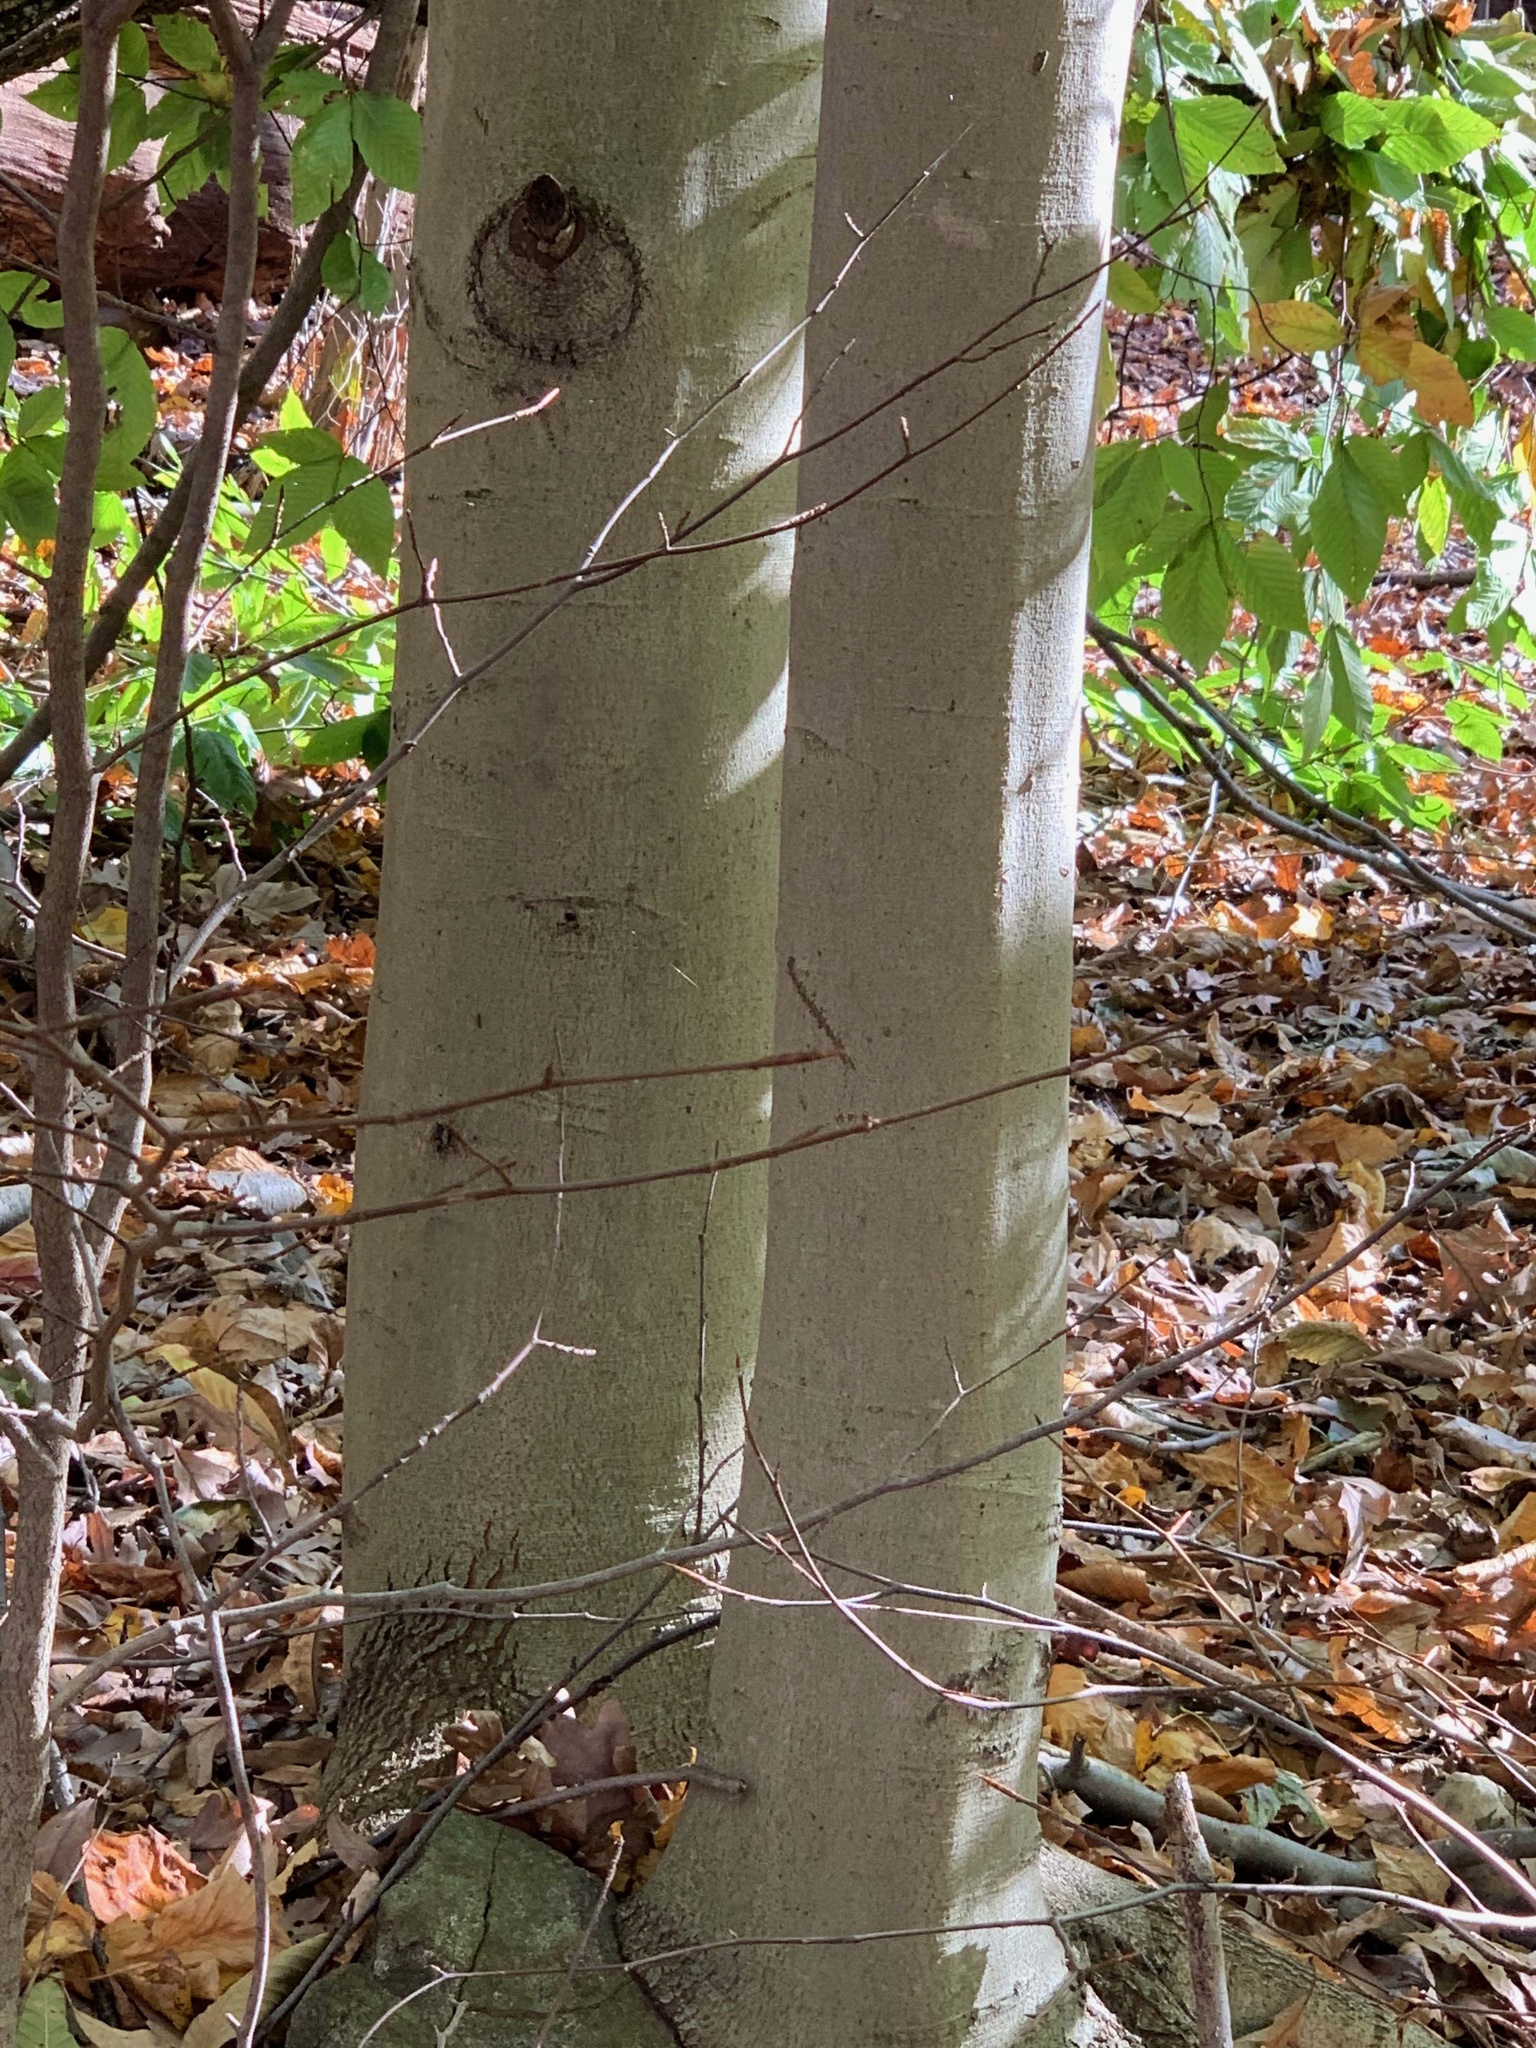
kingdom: Plantae
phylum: Tracheophyta
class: Magnoliopsida
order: Fagales
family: Fagaceae
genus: Fagus
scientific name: Fagus grandifolia
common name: American beech
